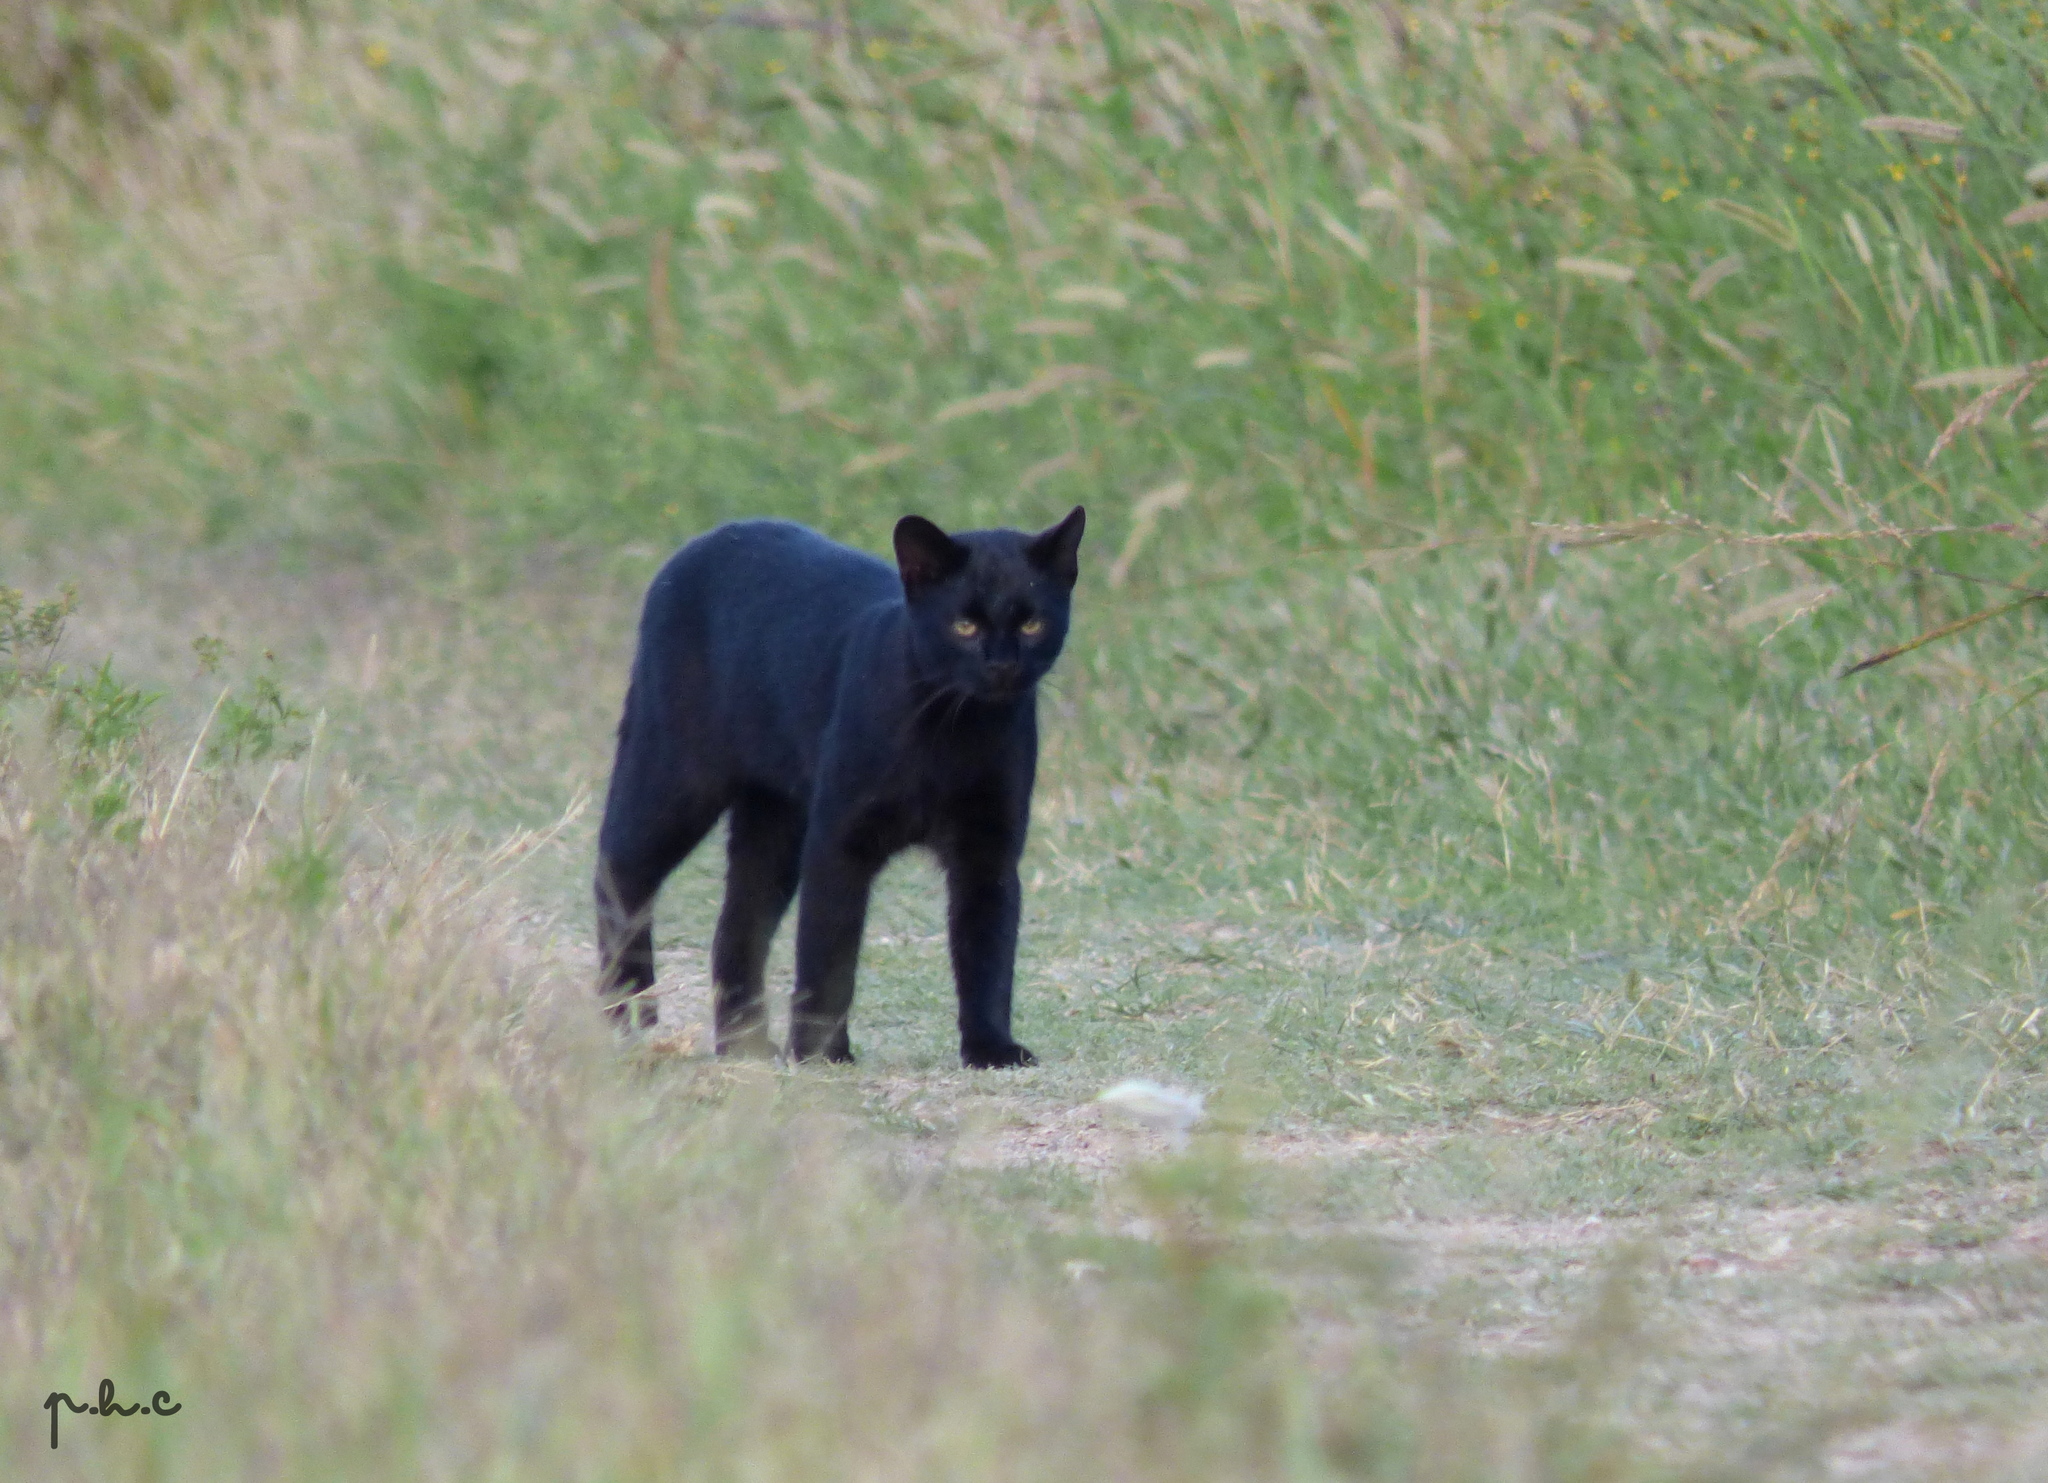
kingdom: Animalia
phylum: Chordata
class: Mammalia
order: Carnivora
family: Felidae
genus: Leopardus
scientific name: Leopardus geoffroyi
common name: Geoffroy's cat
